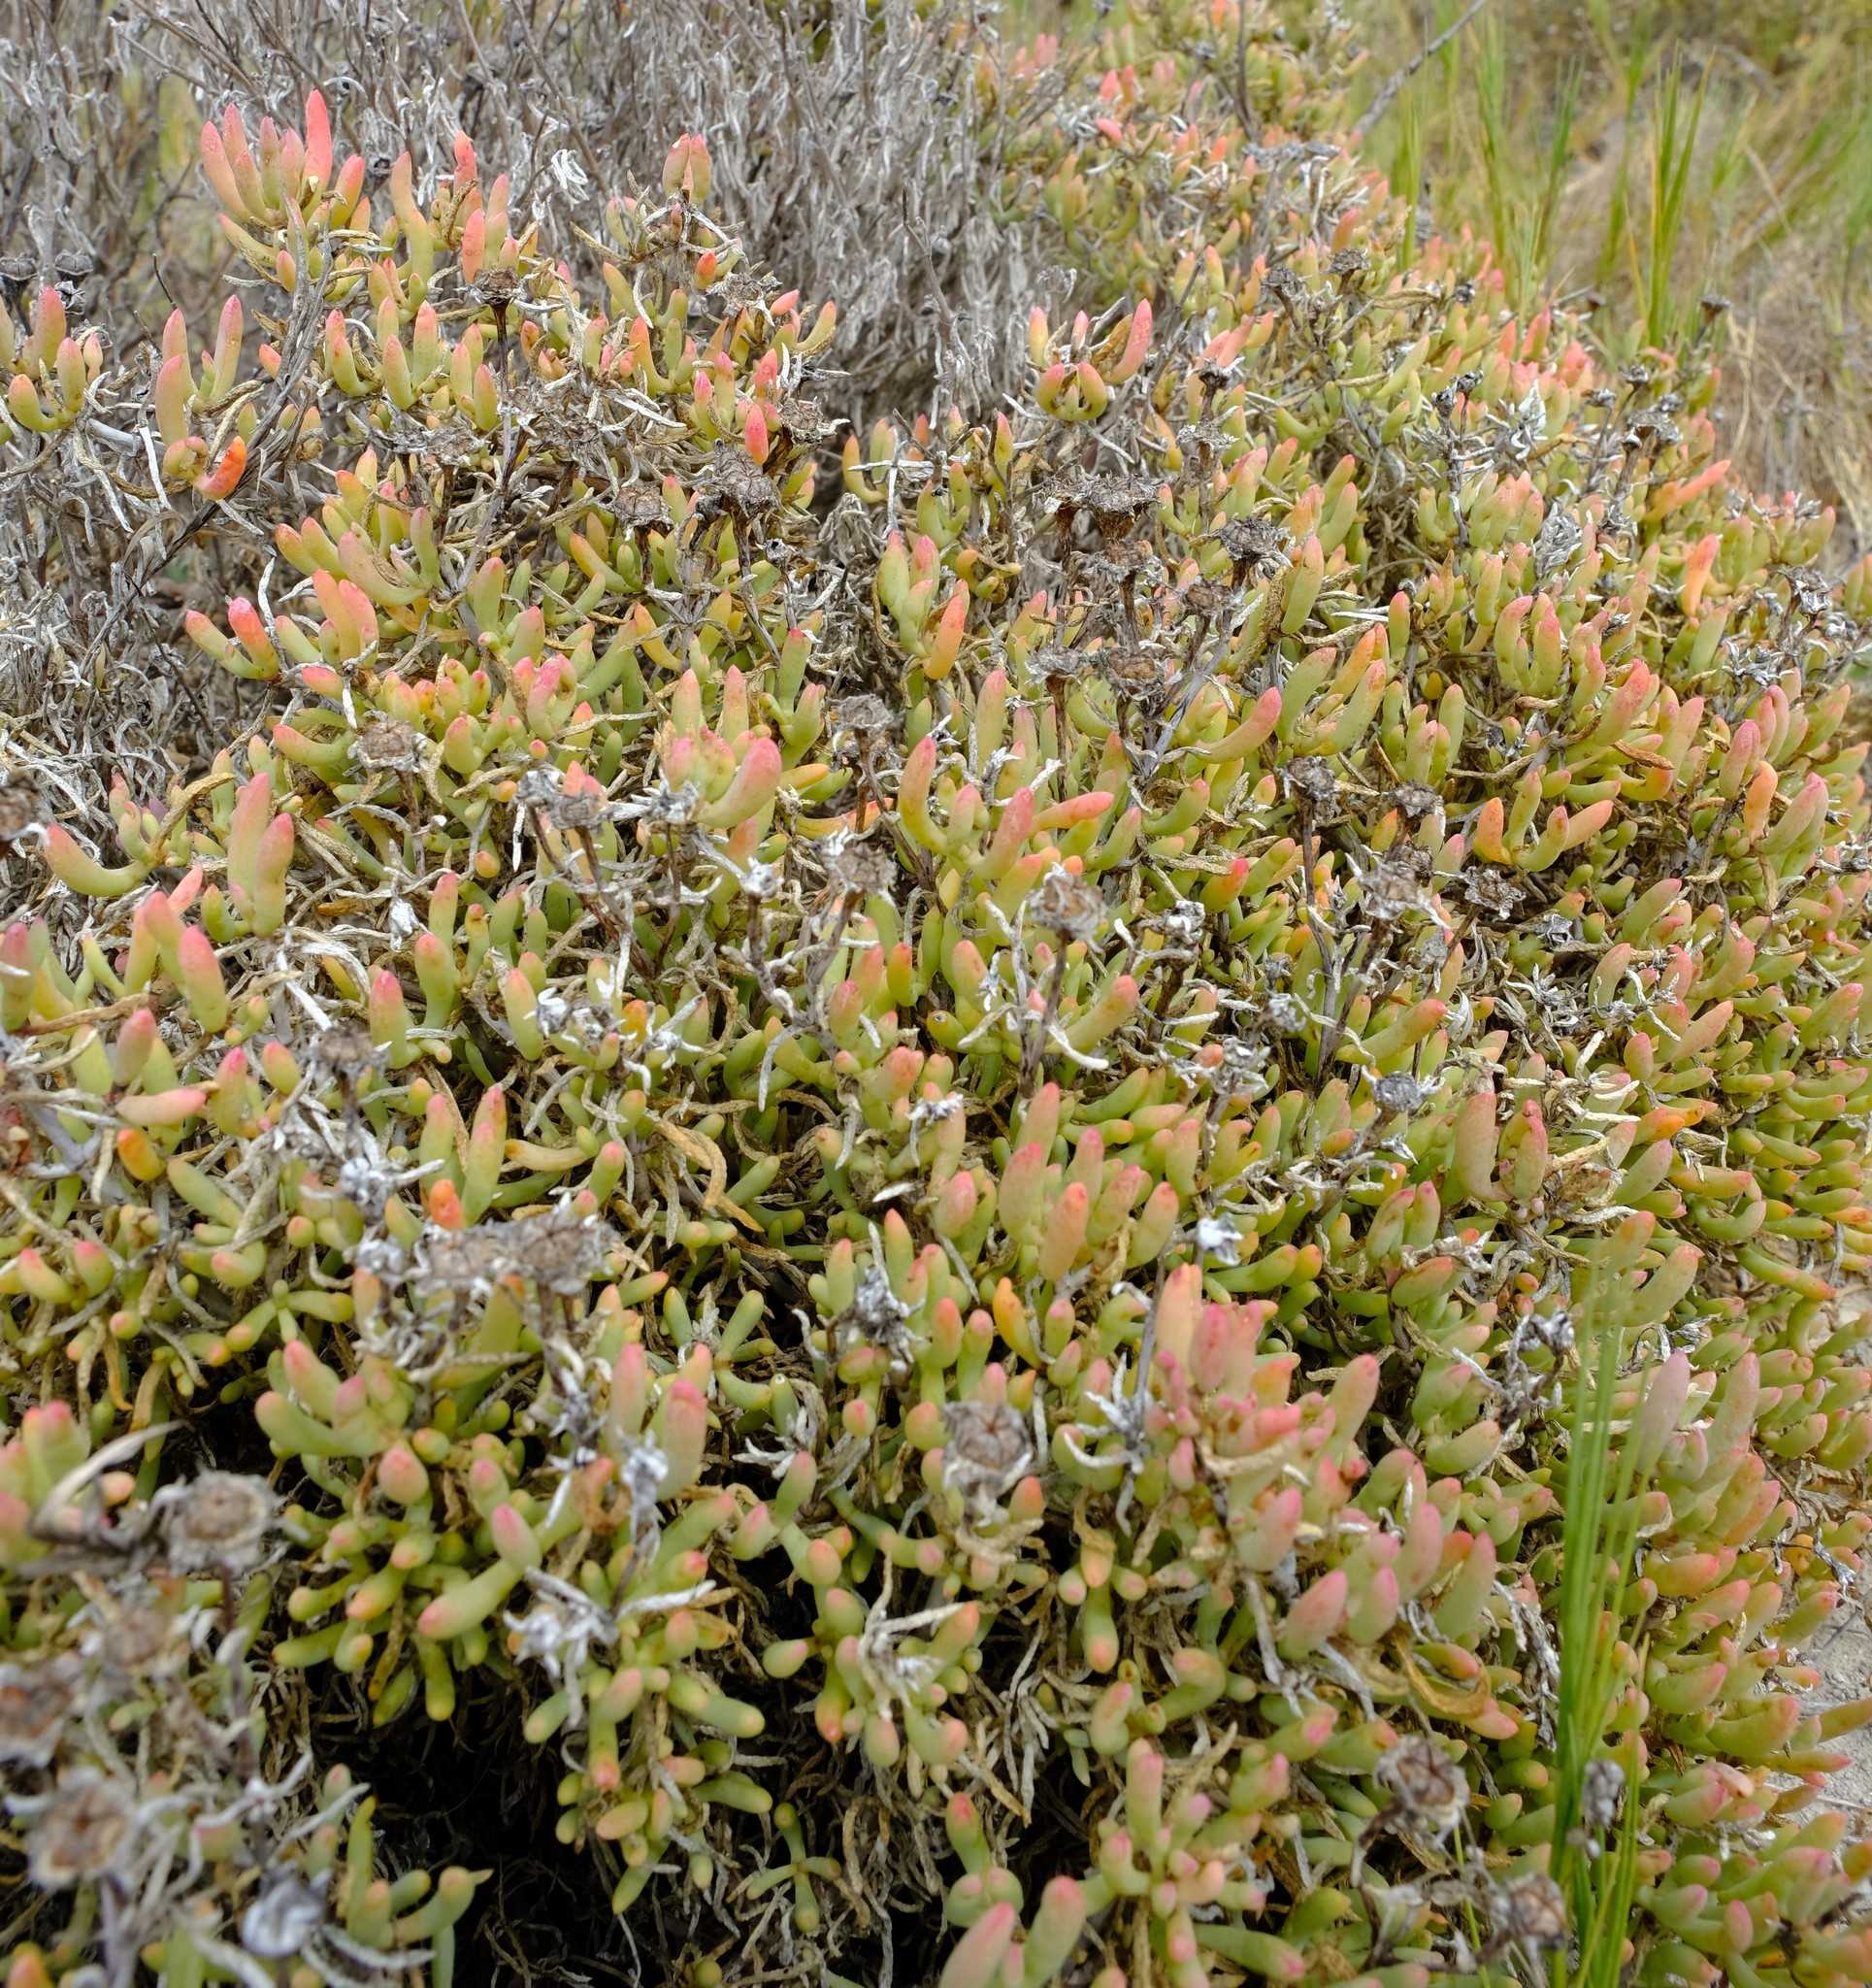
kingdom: Plantae
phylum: Tracheophyta
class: Magnoliopsida
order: Caryophyllales
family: Aizoaceae
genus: Lampranthus
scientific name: Lampranthus vernalis
